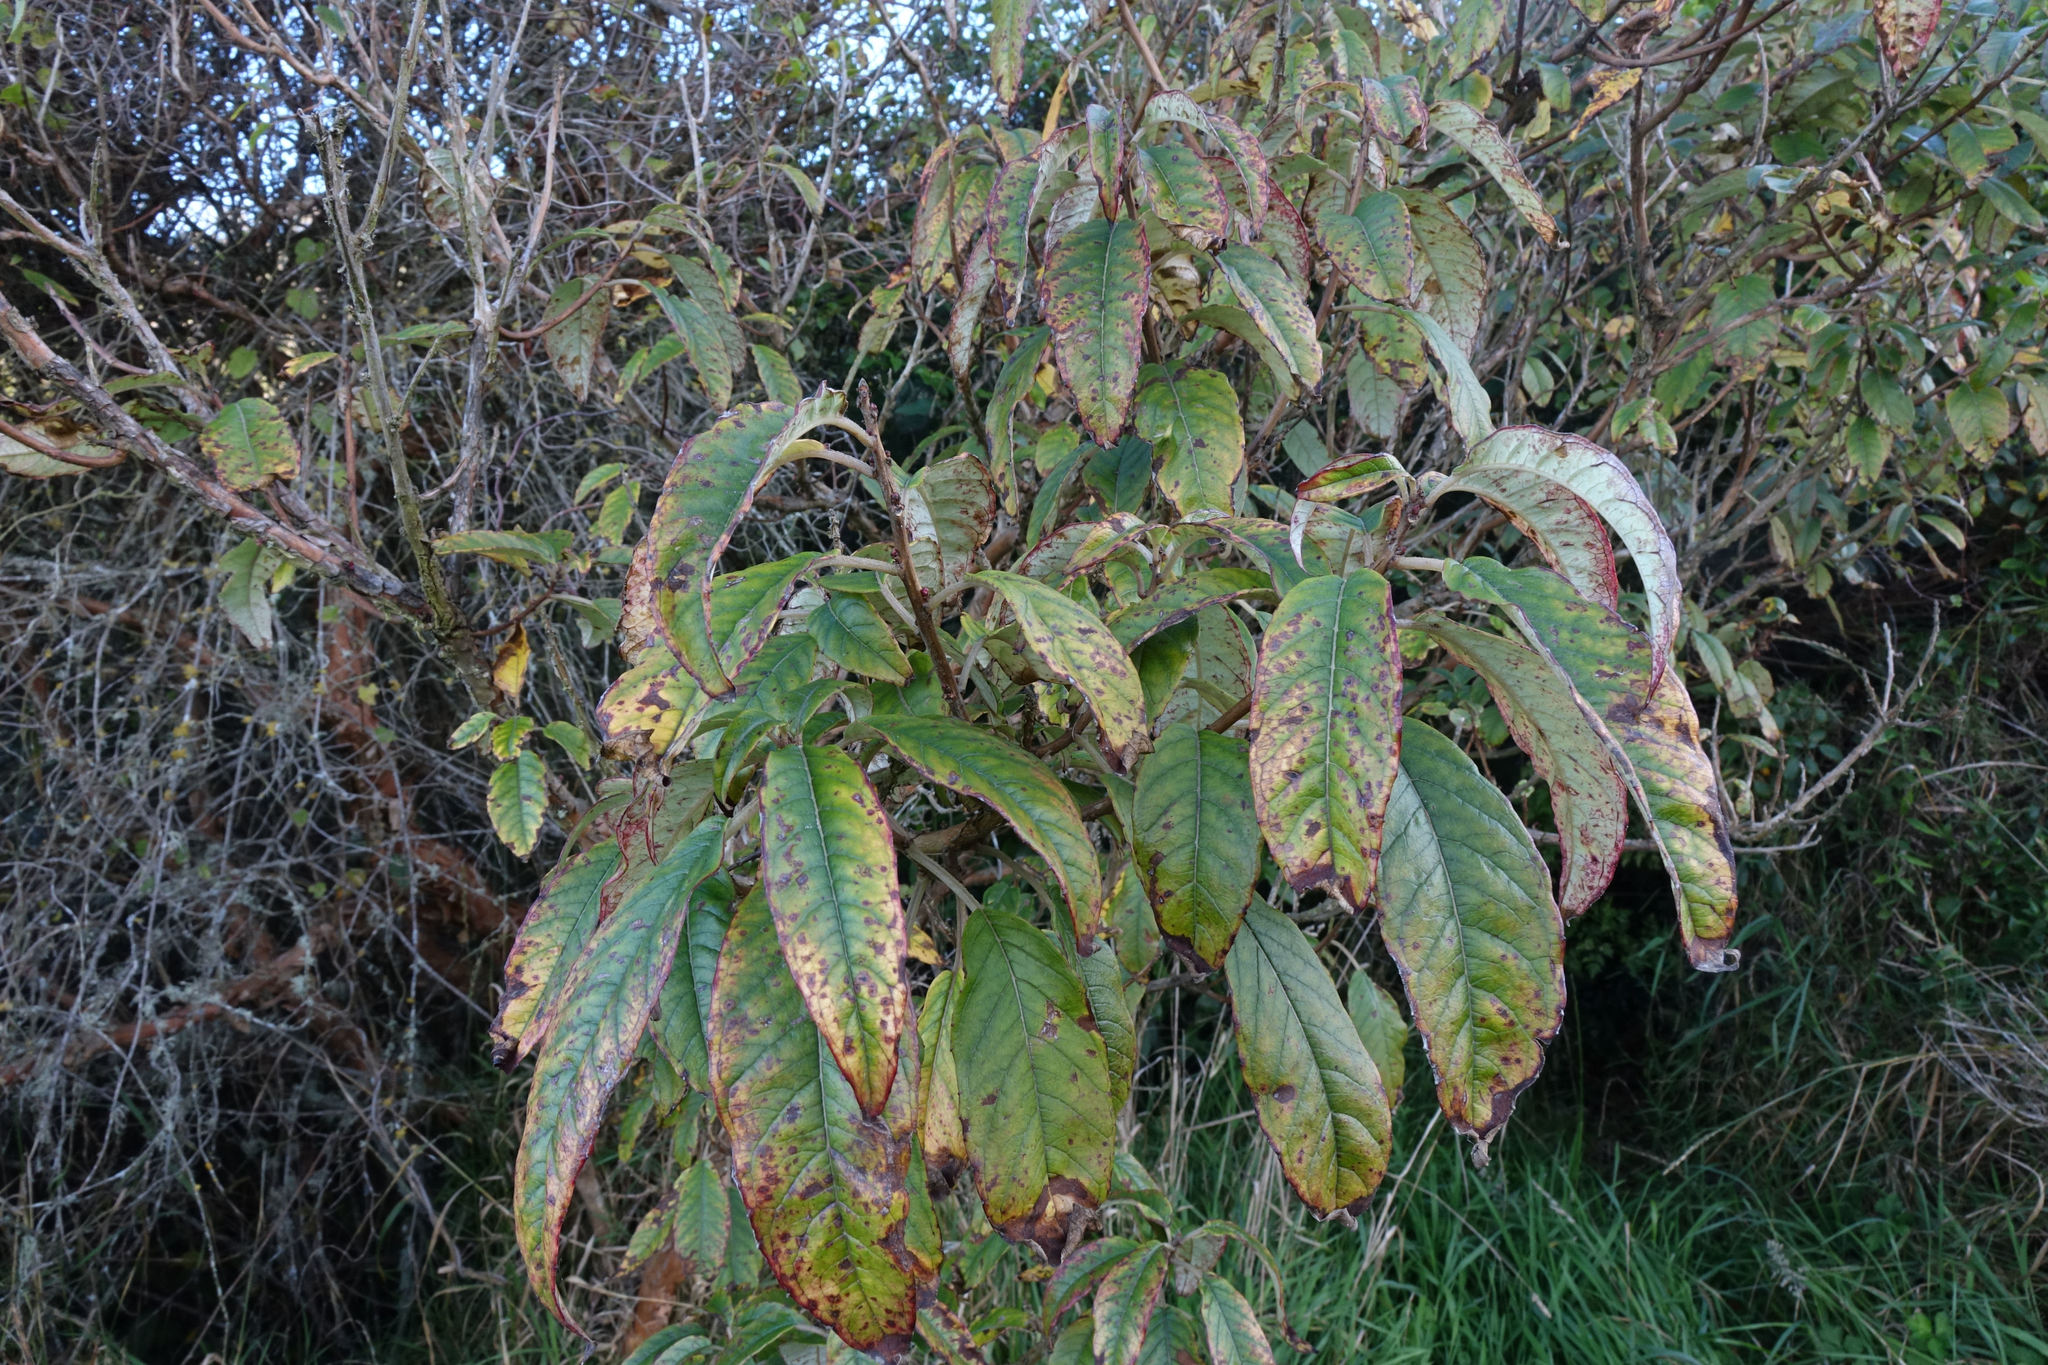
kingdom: Plantae
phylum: Tracheophyta
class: Magnoliopsida
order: Myrtales
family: Onagraceae
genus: Fuchsia
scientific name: Fuchsia excorticata
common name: Tree fuchsia
